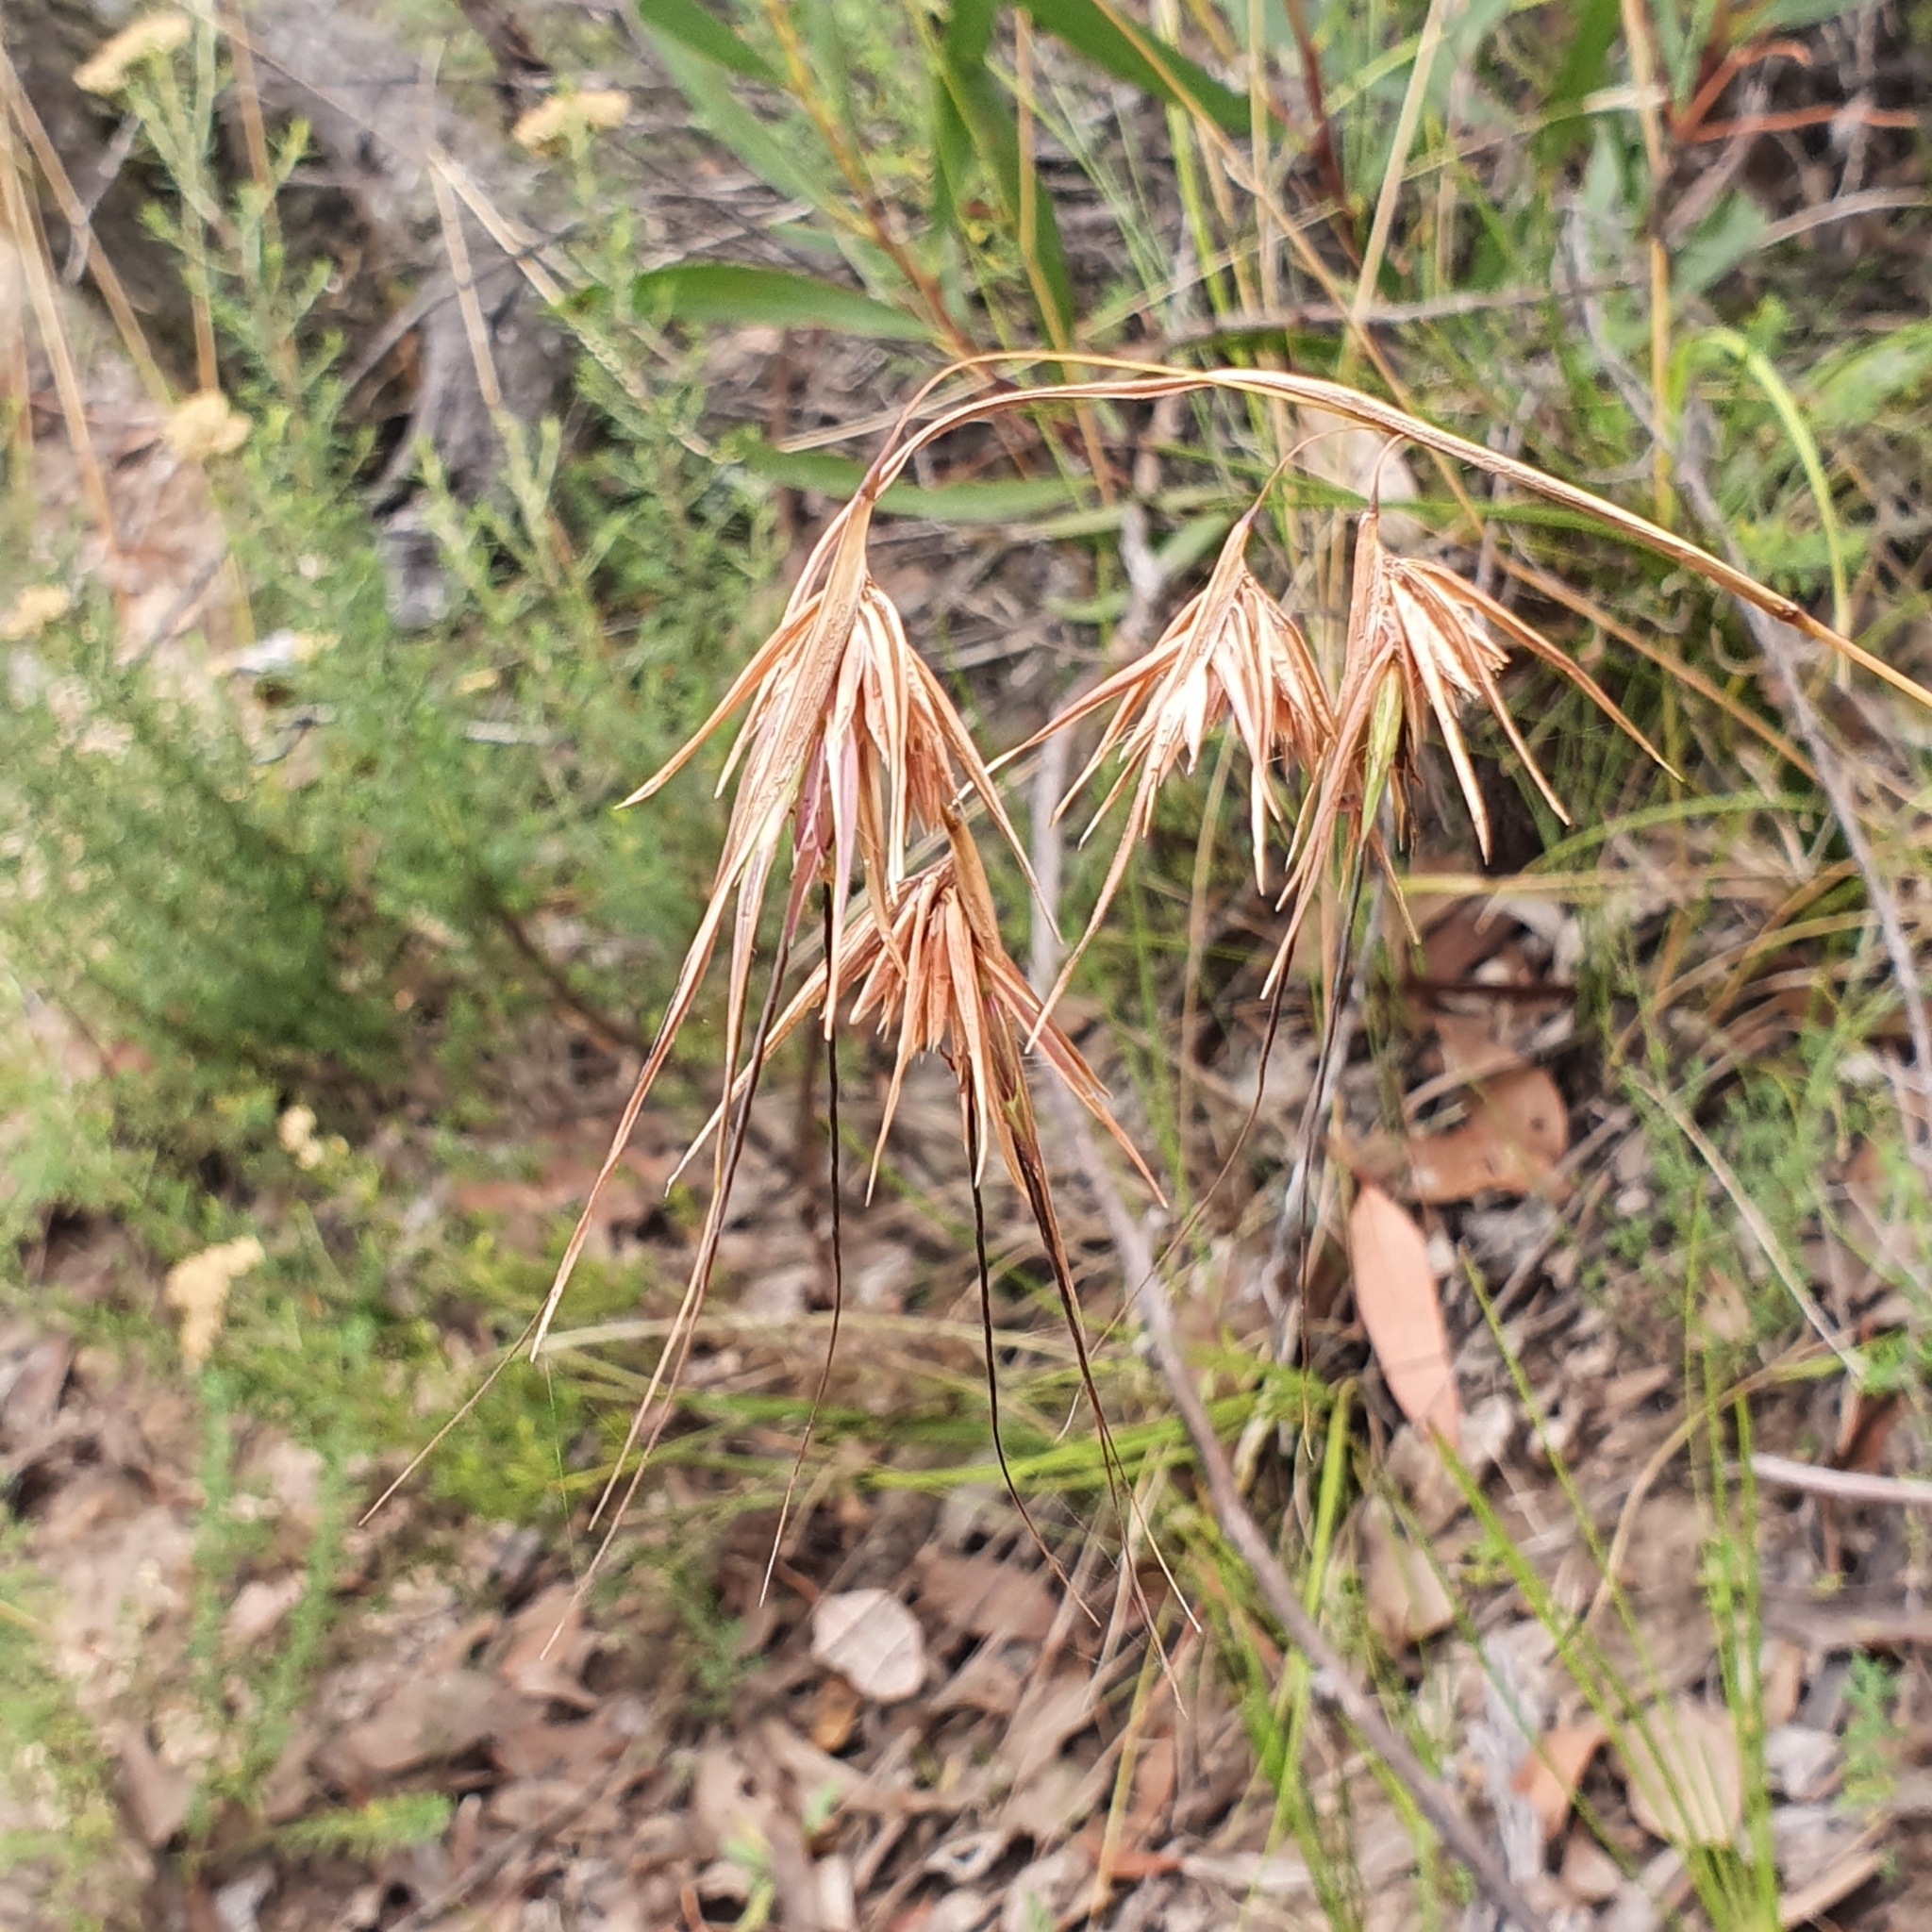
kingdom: Plantae
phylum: Tracheophyta
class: Liliopsida
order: Poales
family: Poaceae
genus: Themeda
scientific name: Themeda triandra
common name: Kangaroo grass
